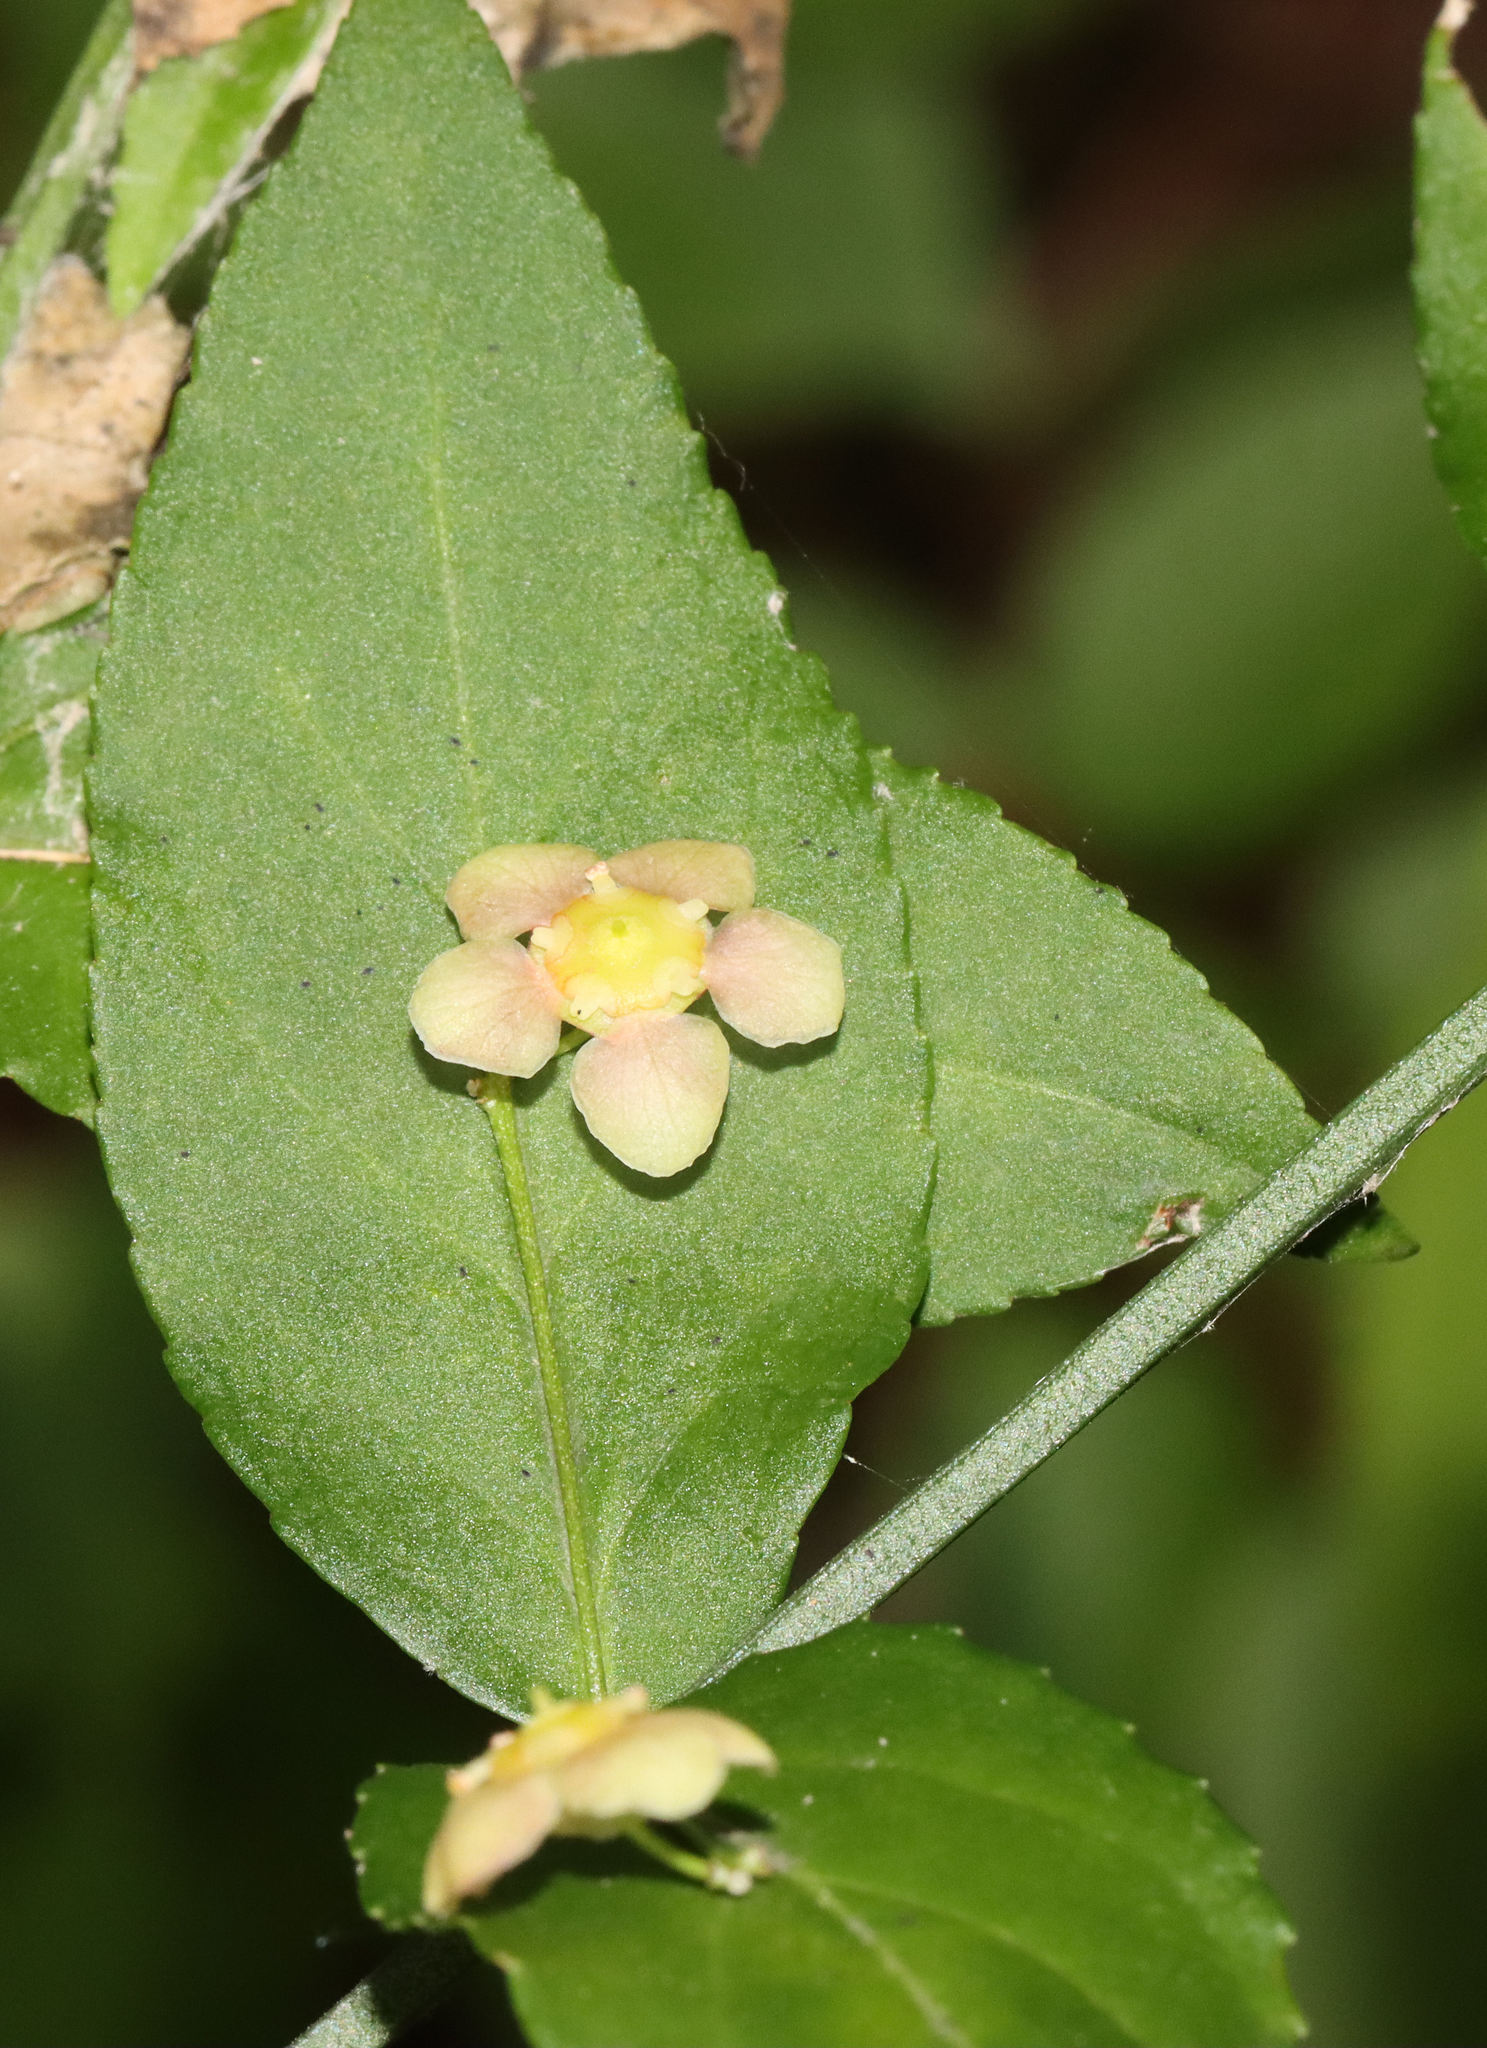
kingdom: Plantae
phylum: Tracheophyta
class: Magnoliopsida
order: Celastrales
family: Celastraceae
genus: Euonymus
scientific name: Euonymus americanus
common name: Bursting-heart
